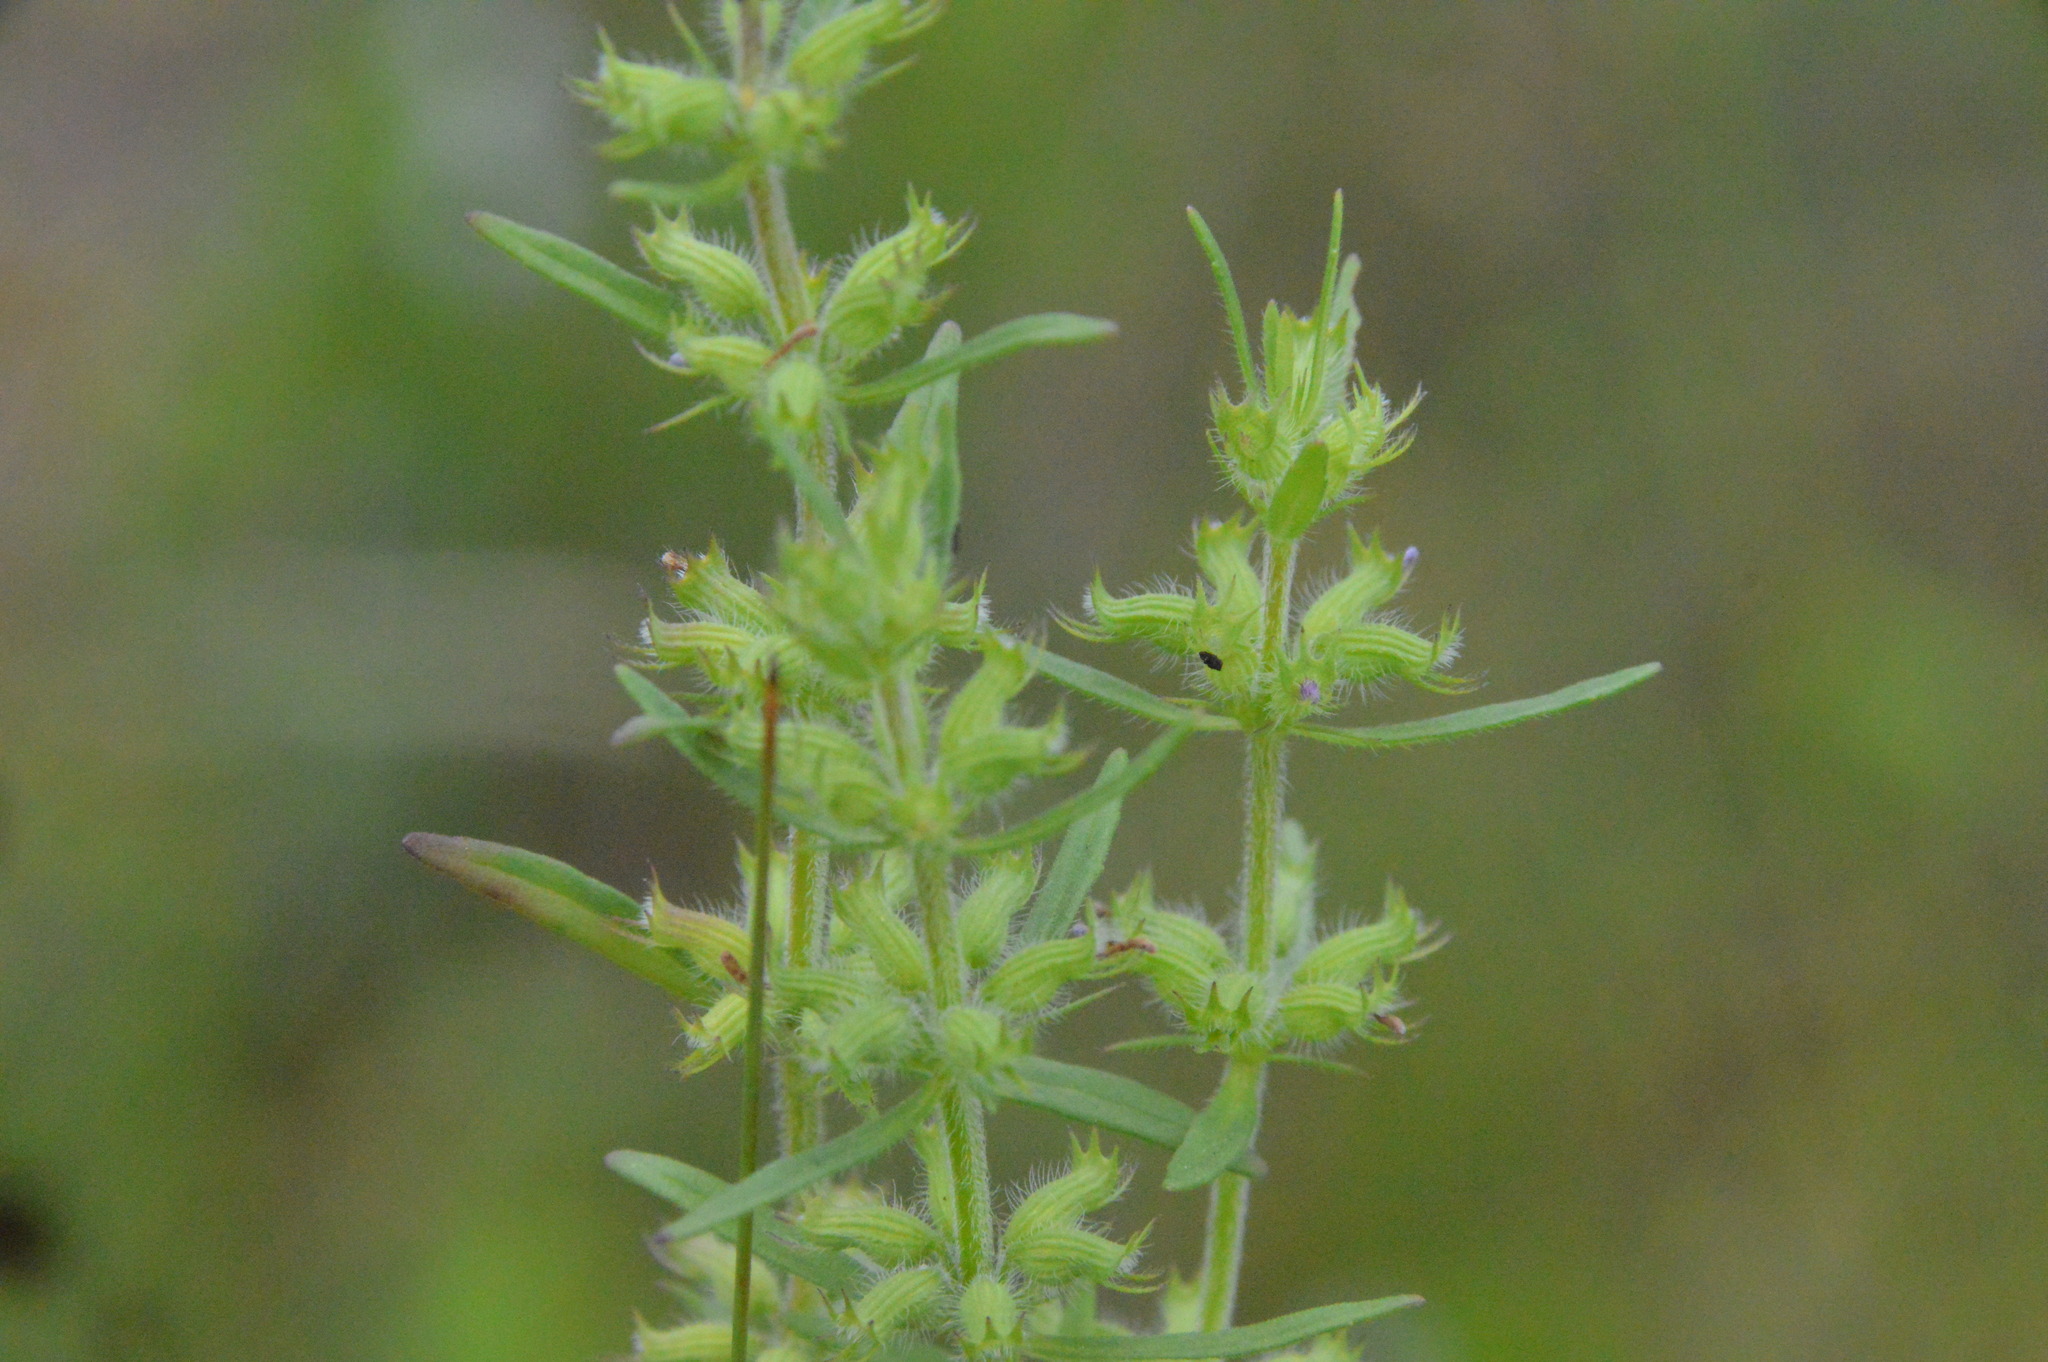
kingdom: Plantae
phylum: Tracheophyta
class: Magnoliopsida
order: Lamiales
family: Lamiaceae
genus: Hedeoma
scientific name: Hedeoma hispida
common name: Mock pennyroyal
